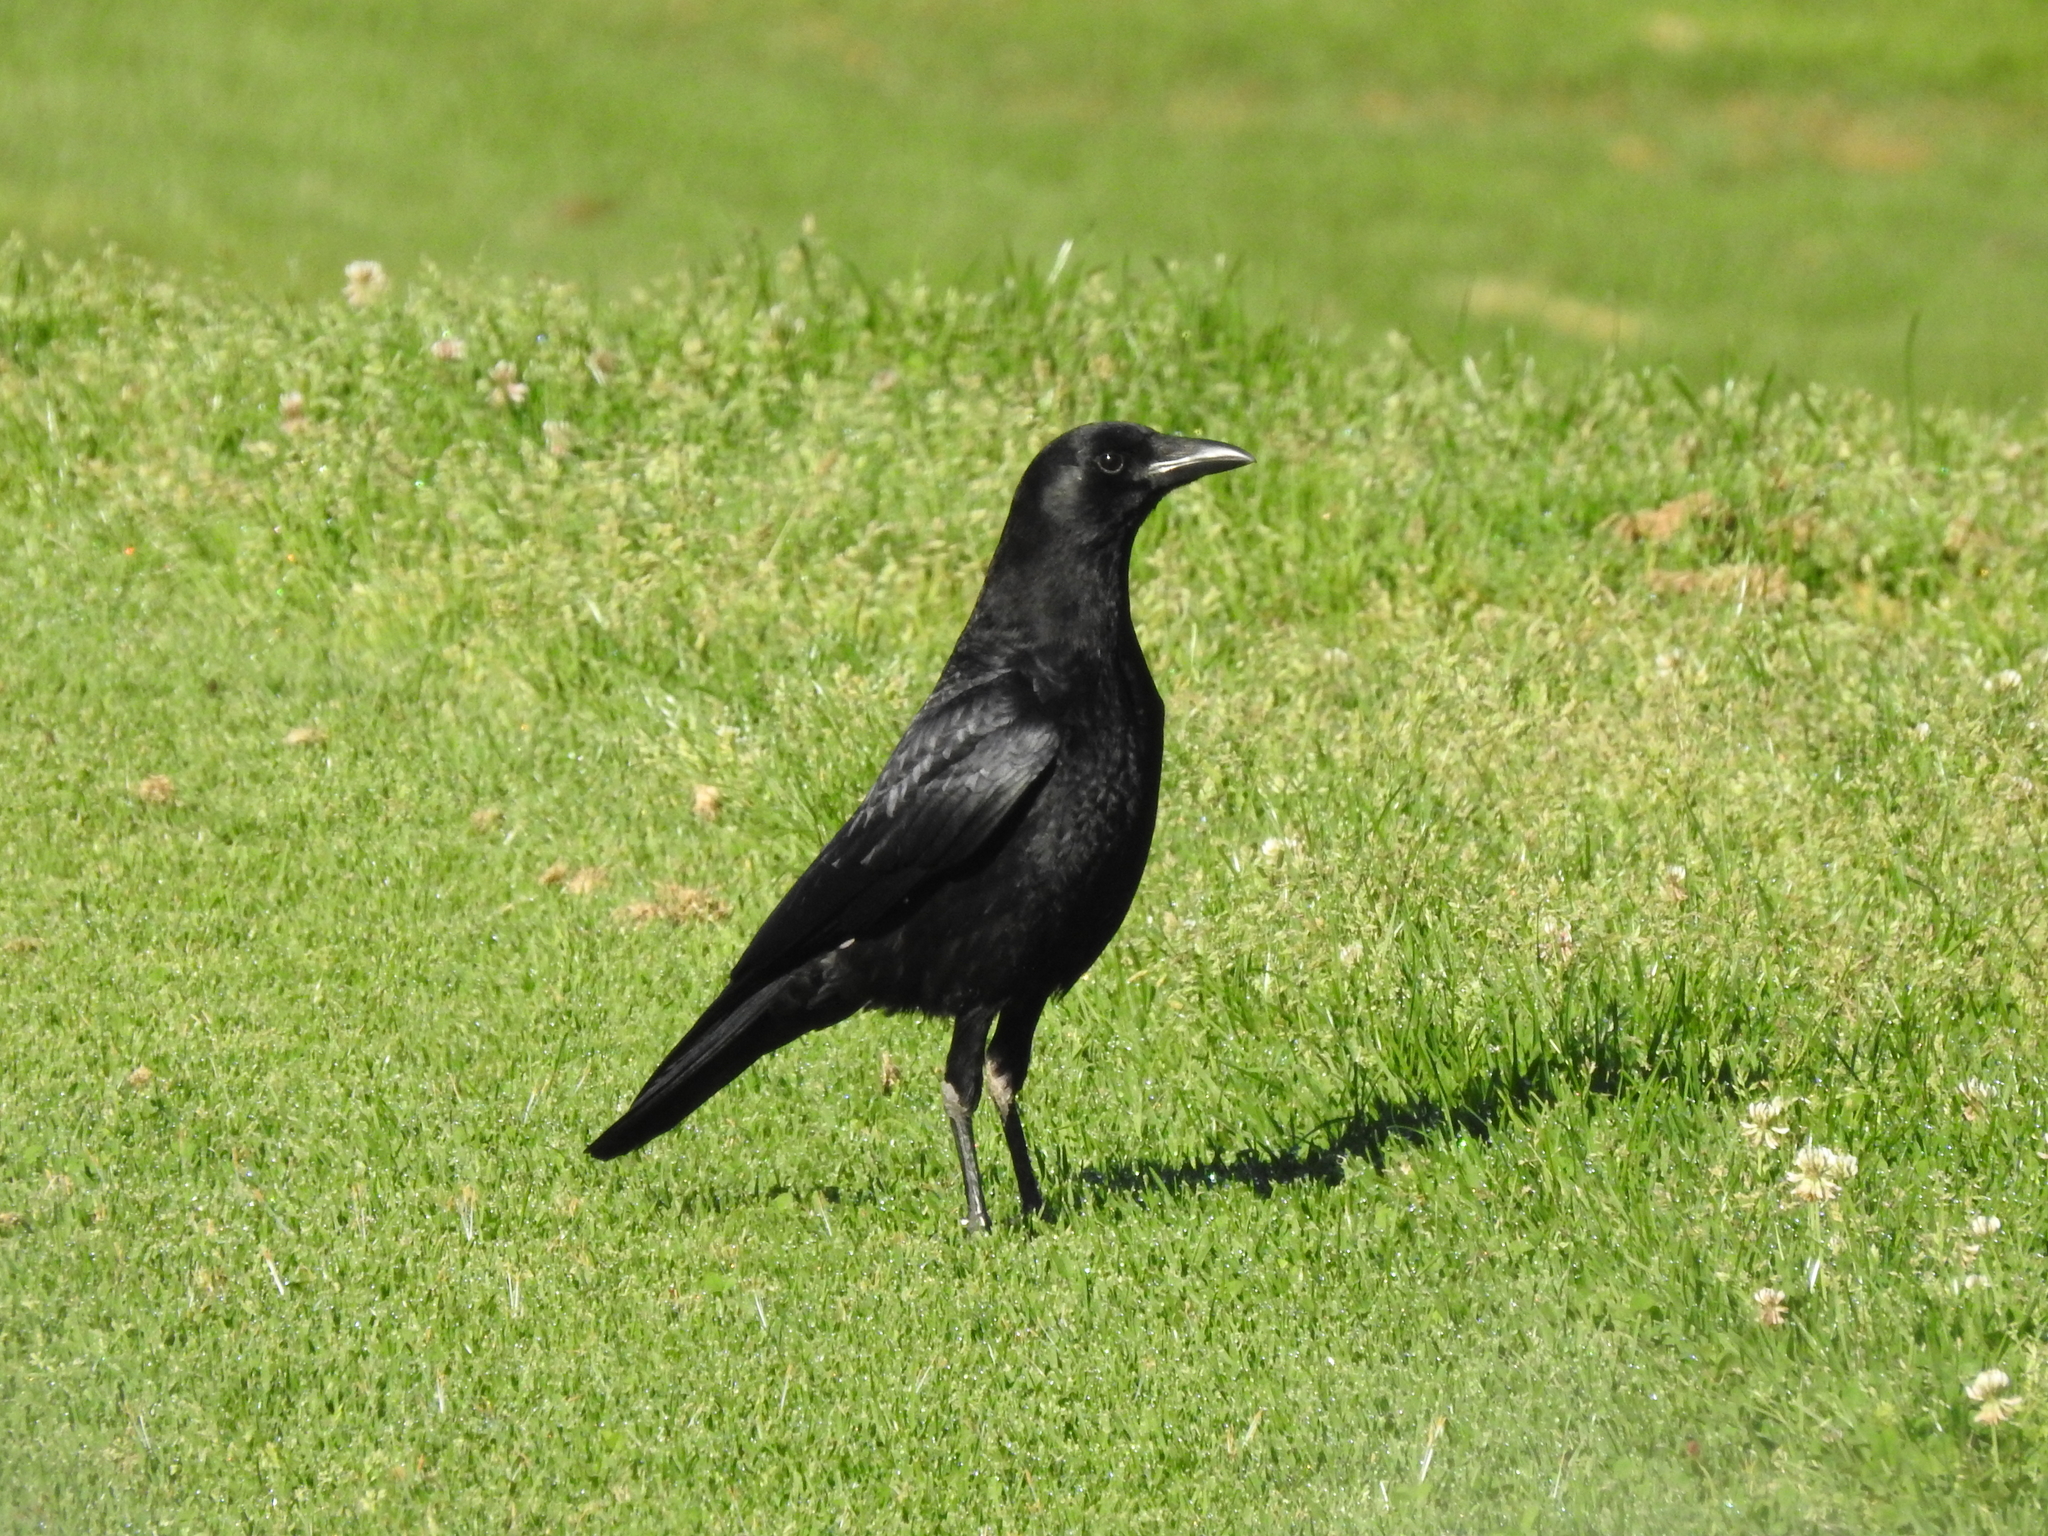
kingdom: Animalia
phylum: Chordata
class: Aves
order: Passeriformes
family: Corvidae
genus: Corvus
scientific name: Corvus brachyrhynchos
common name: American crow
